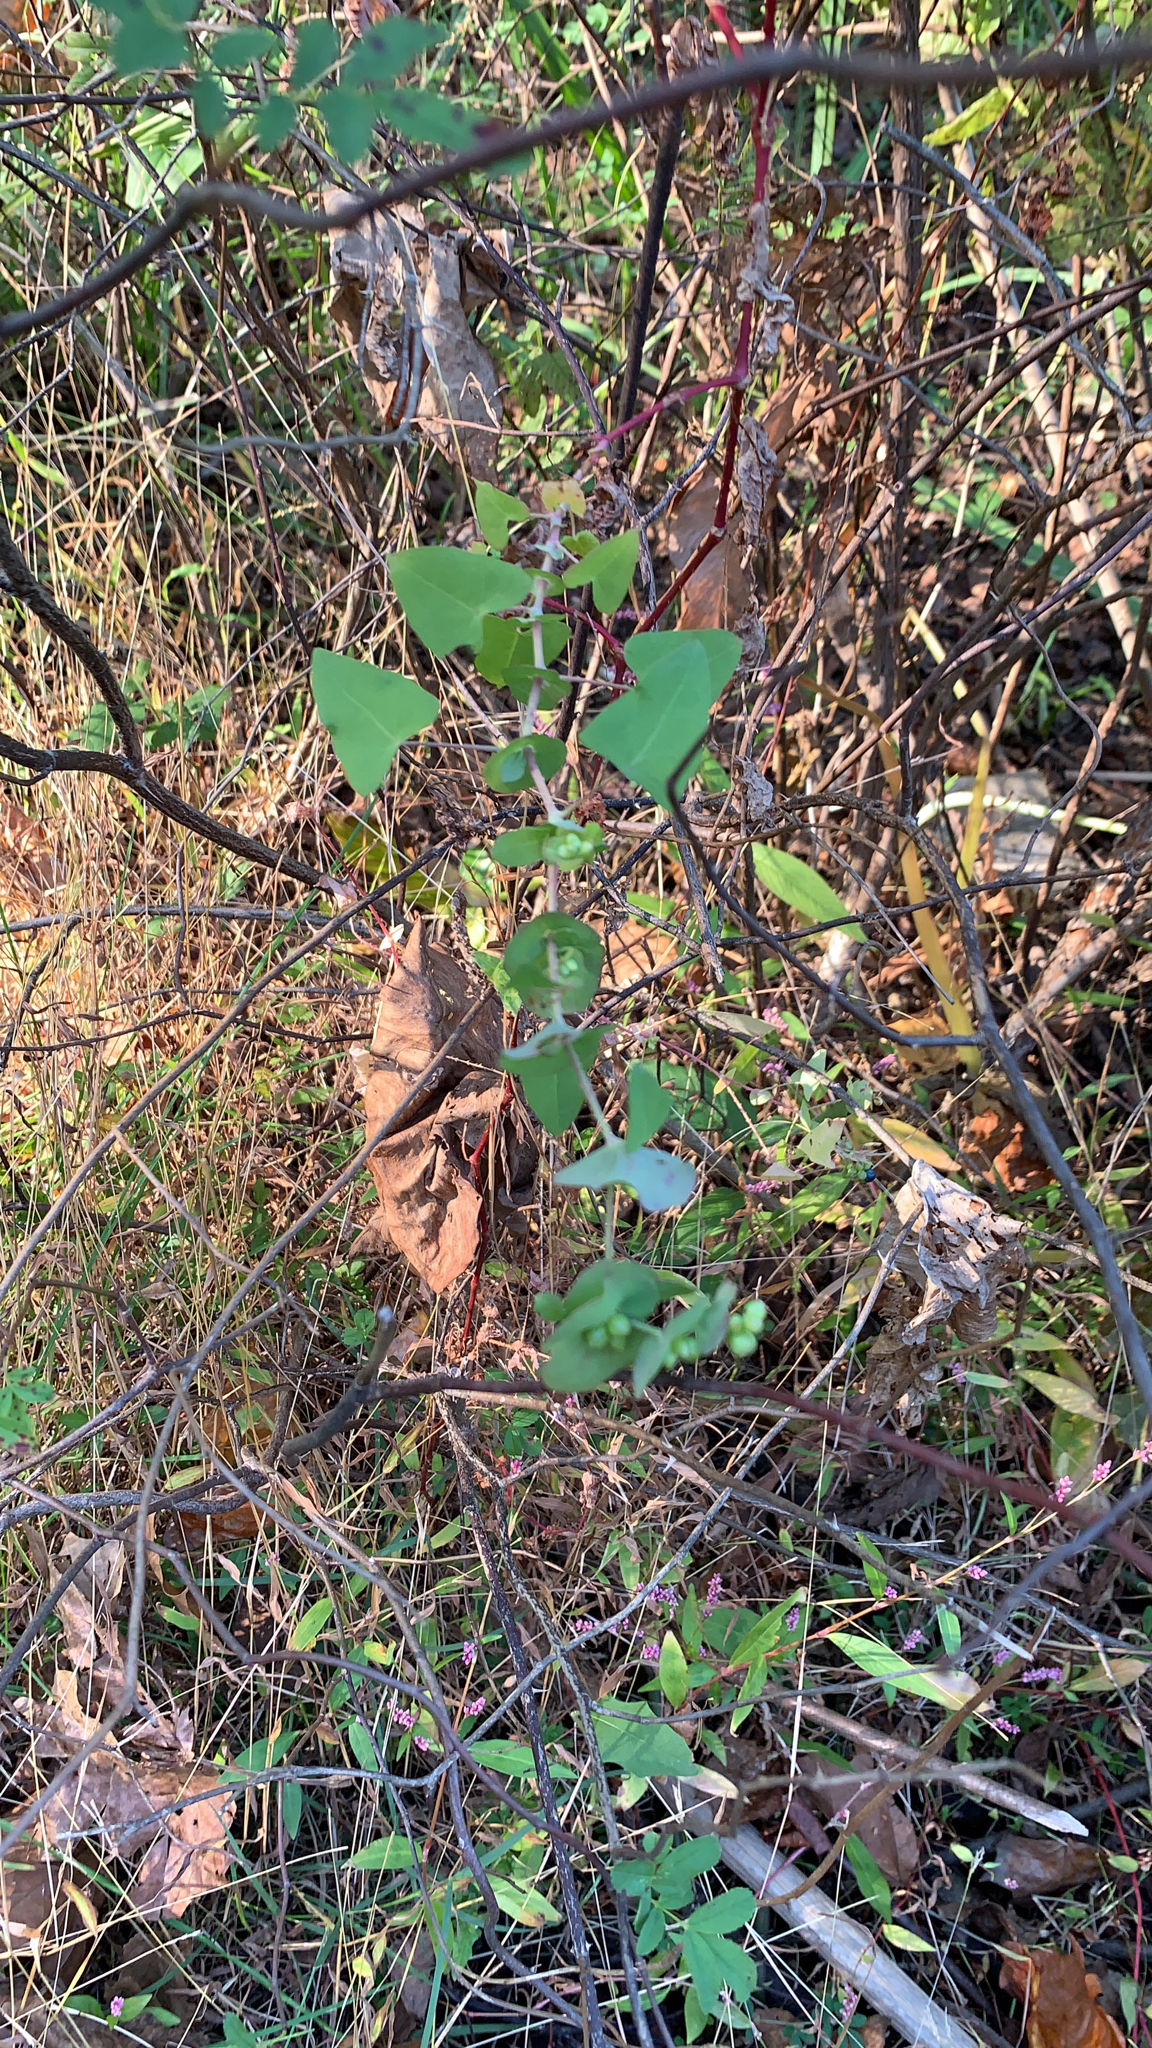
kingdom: Plantae
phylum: Tracheophyta
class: Magnoliopsida
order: Caryophyllales
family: Polygonaceae
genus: Persicaria
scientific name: Persicaria perfoliata
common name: Asiatic tearthumb
